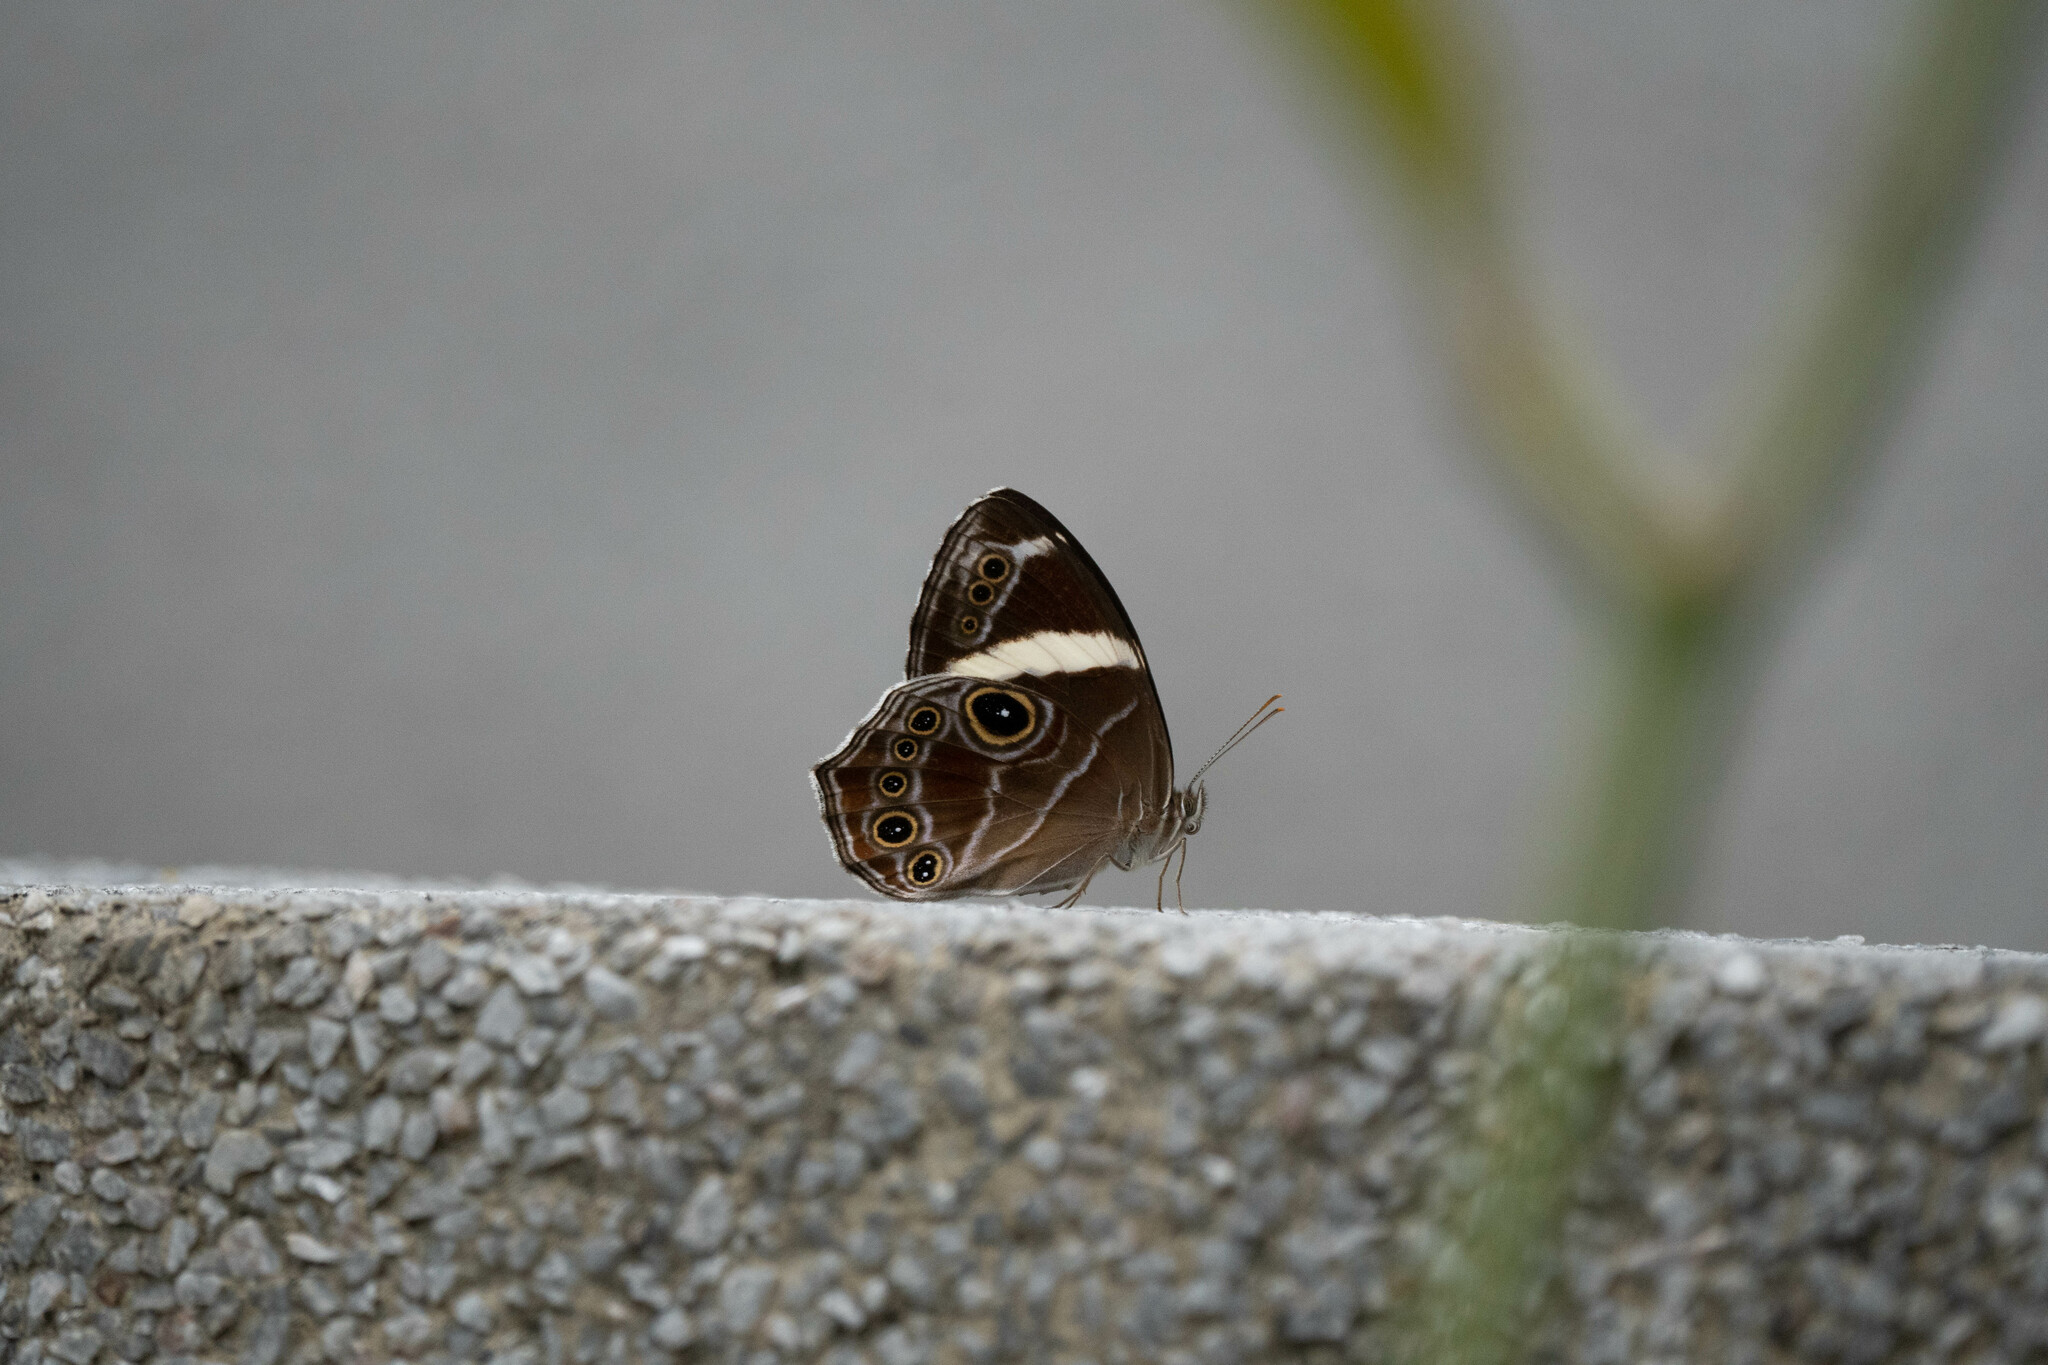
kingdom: Animalia
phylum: Arthropoda
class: Insecta
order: Lepidoptera
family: Nymphalidae
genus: Lethe
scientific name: Lethe confusa
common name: Banded treebrown
